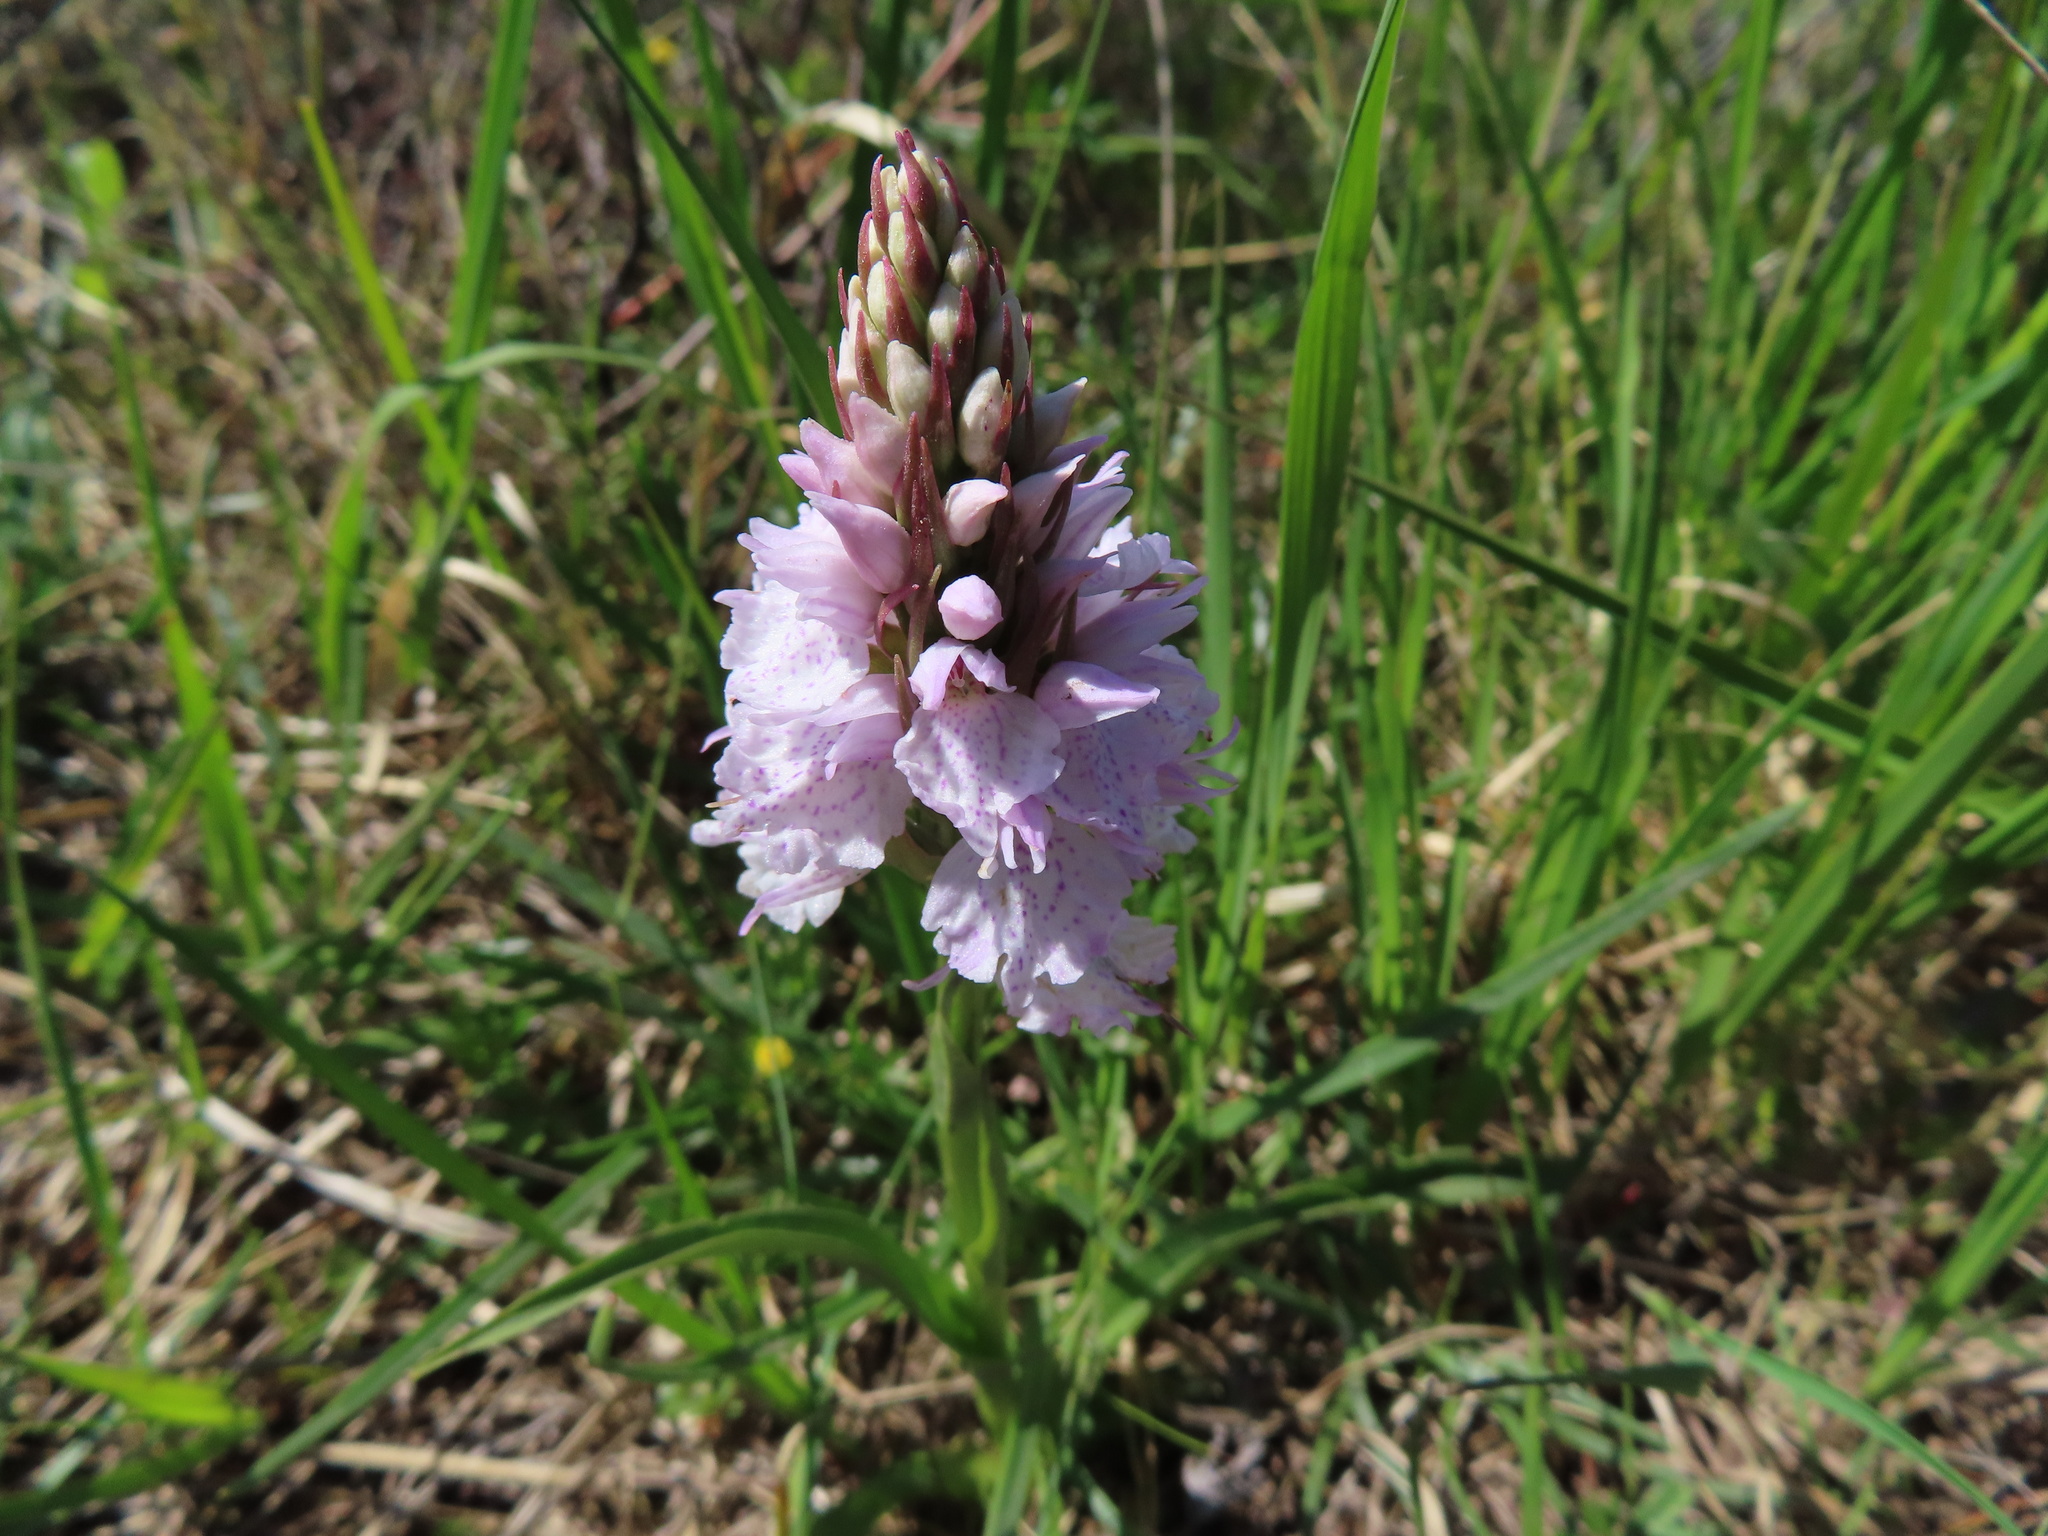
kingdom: Plantae
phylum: Tracheophyta
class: Liliopsida
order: Asparagales
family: Orchidaceae
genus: Dactylorhiza
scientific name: Dactylorhiza maculata
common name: Heath spotted-orchid
